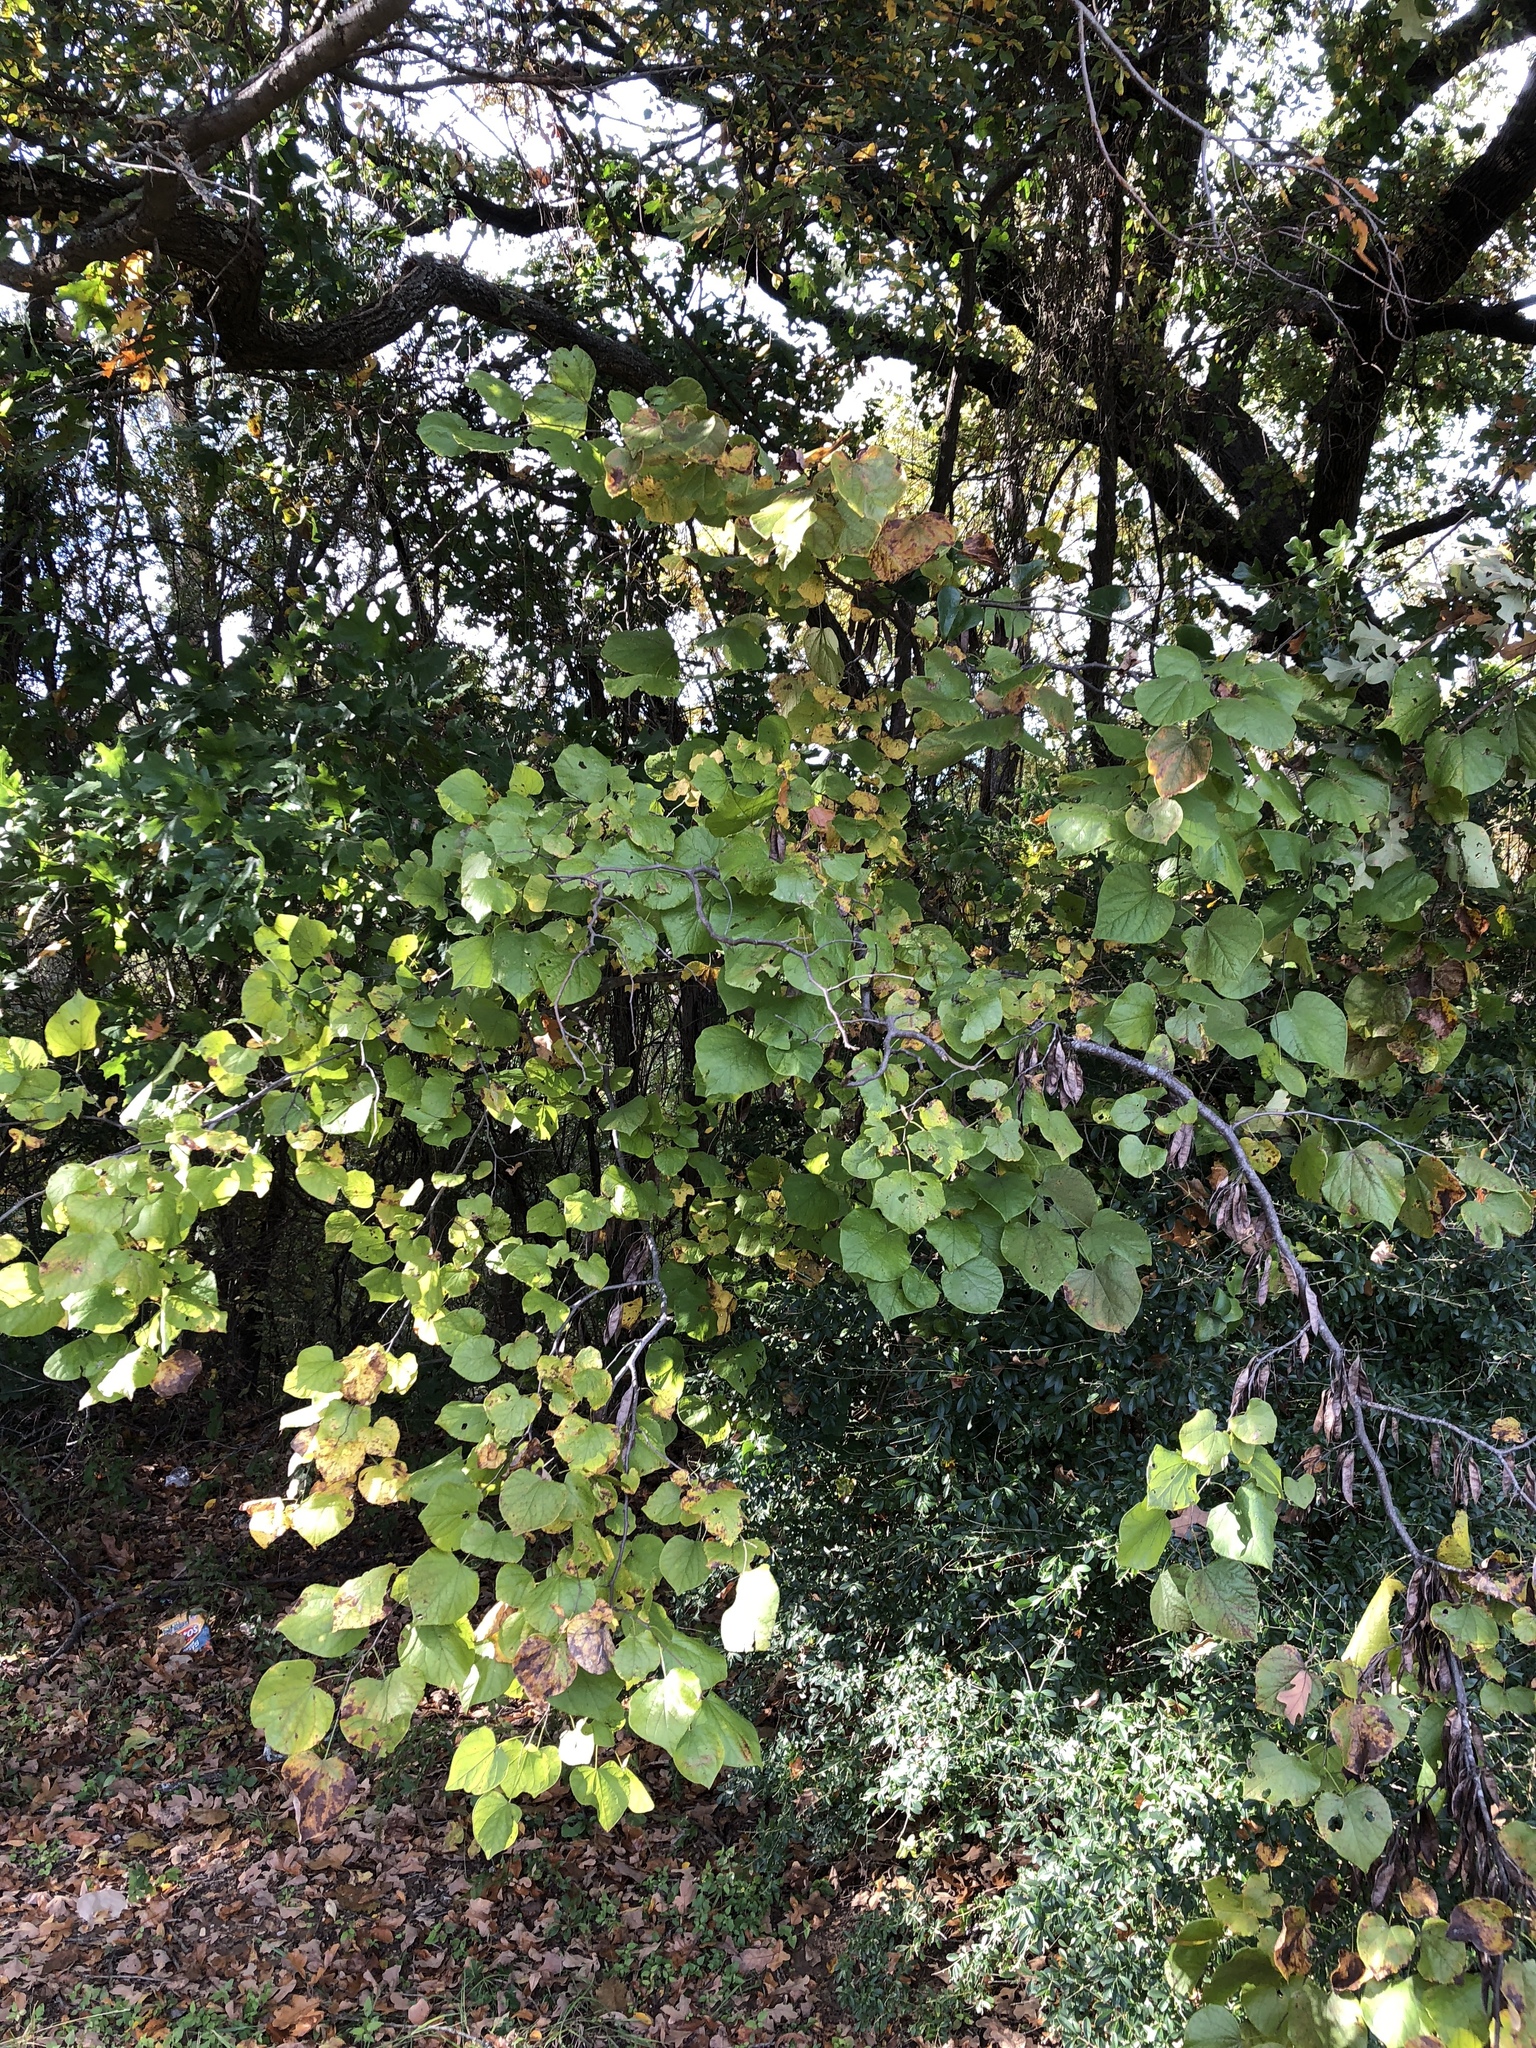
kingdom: Plantae
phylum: Tracheophyta
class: Magnoliopsida
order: Fabales
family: Fabaceae
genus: Cercis
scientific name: Cercis canadensis
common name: Eastern redbud
